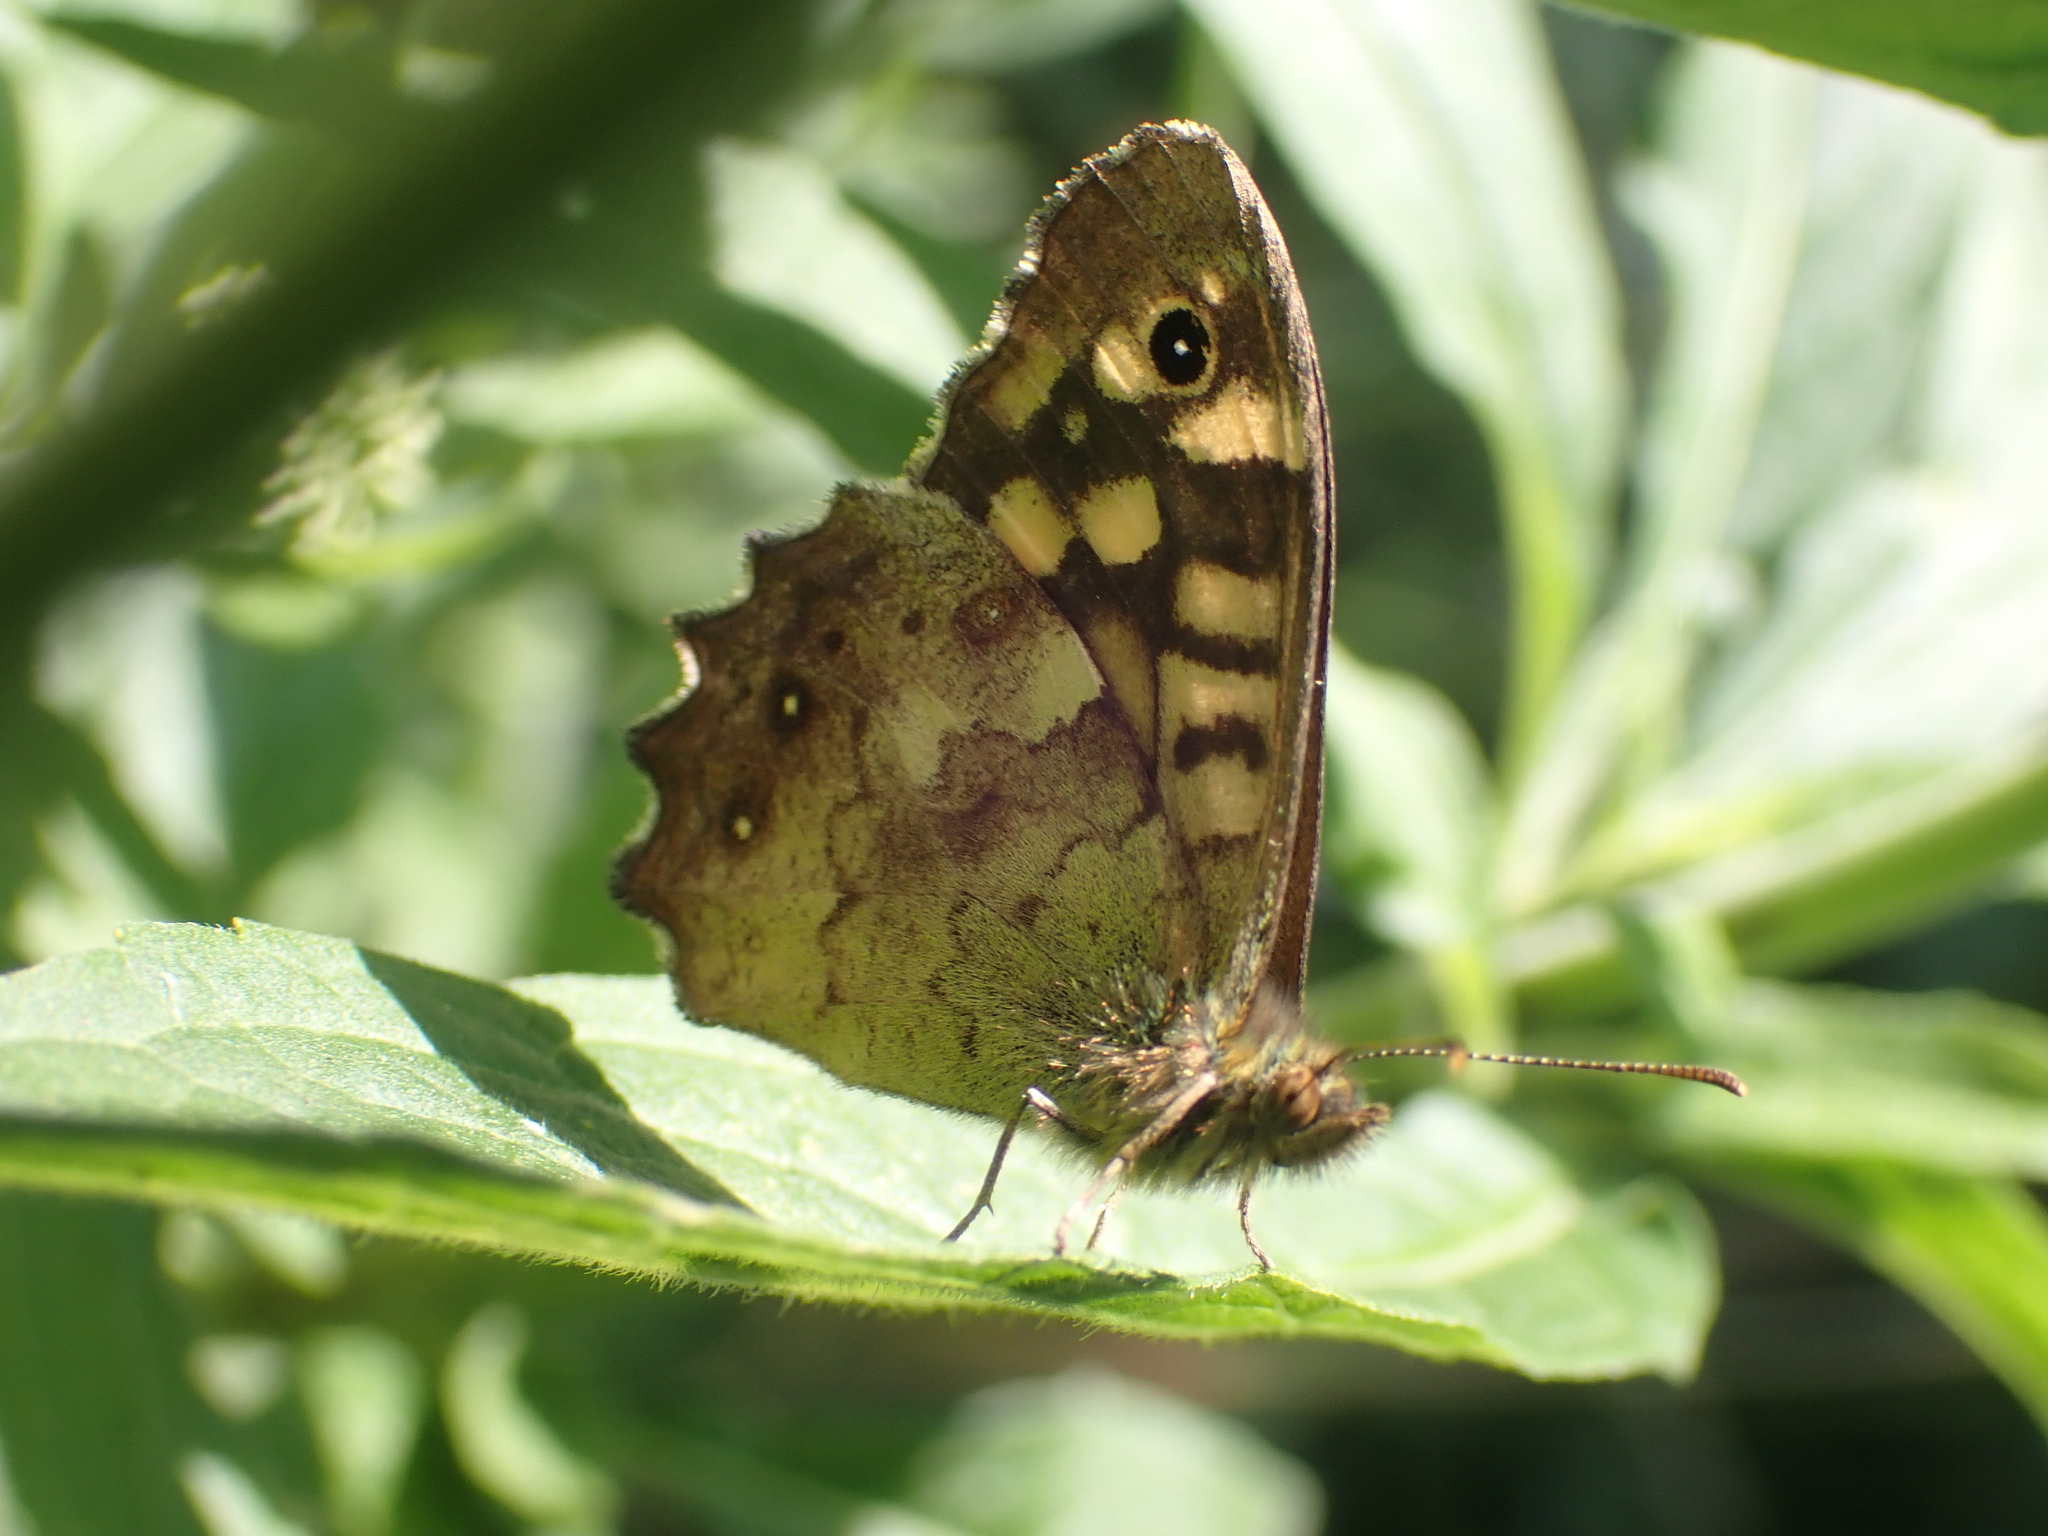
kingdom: Animalia
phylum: Arthropoda
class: Insecta
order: Lepidoptera
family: Nymphalidae
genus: Pararge
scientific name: Pararge aegeria
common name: Speckled wood
